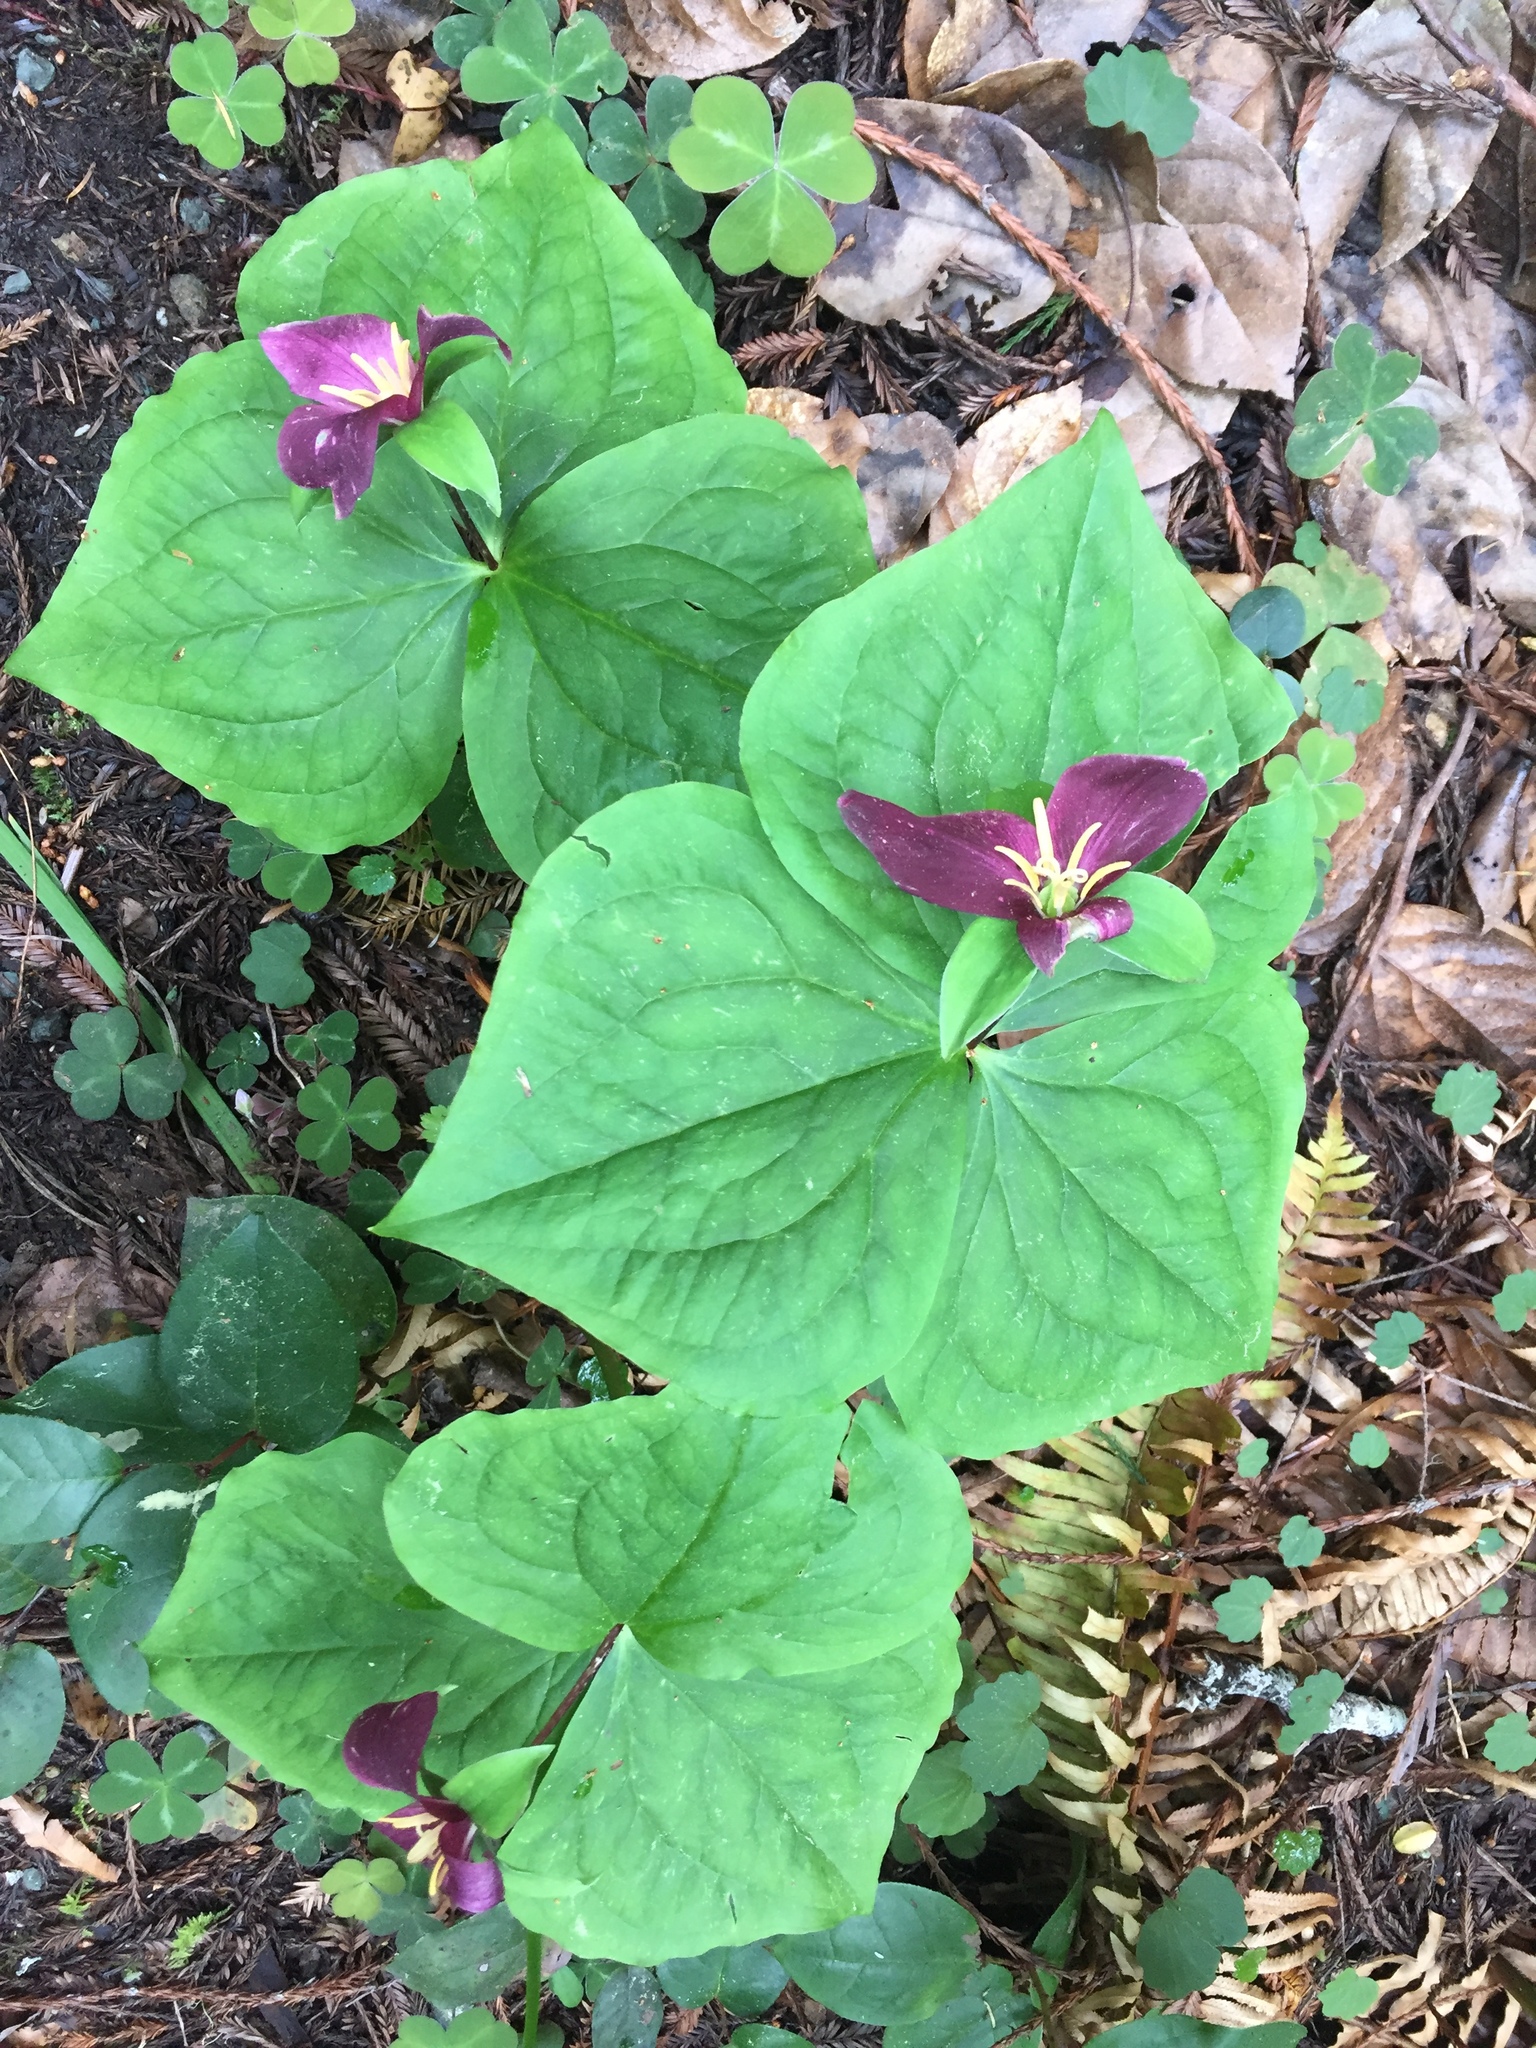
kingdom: Plantae
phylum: Tracheophyta
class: Liliopsida
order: Liliales
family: Melanthiaceae
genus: Trillium
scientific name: Trillium ovatum
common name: Pacific trillium
